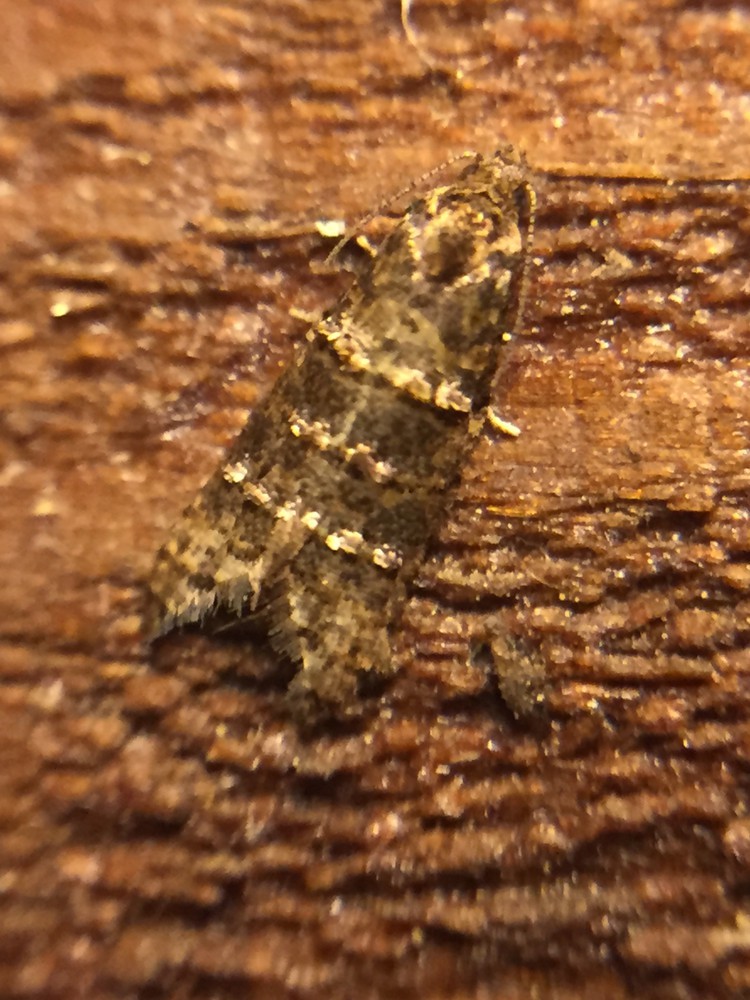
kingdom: Animalia
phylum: Arthropoda
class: Insecta
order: Lepidoptera
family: Tortricidae
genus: Lopharcha
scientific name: Lopharcha insolita
